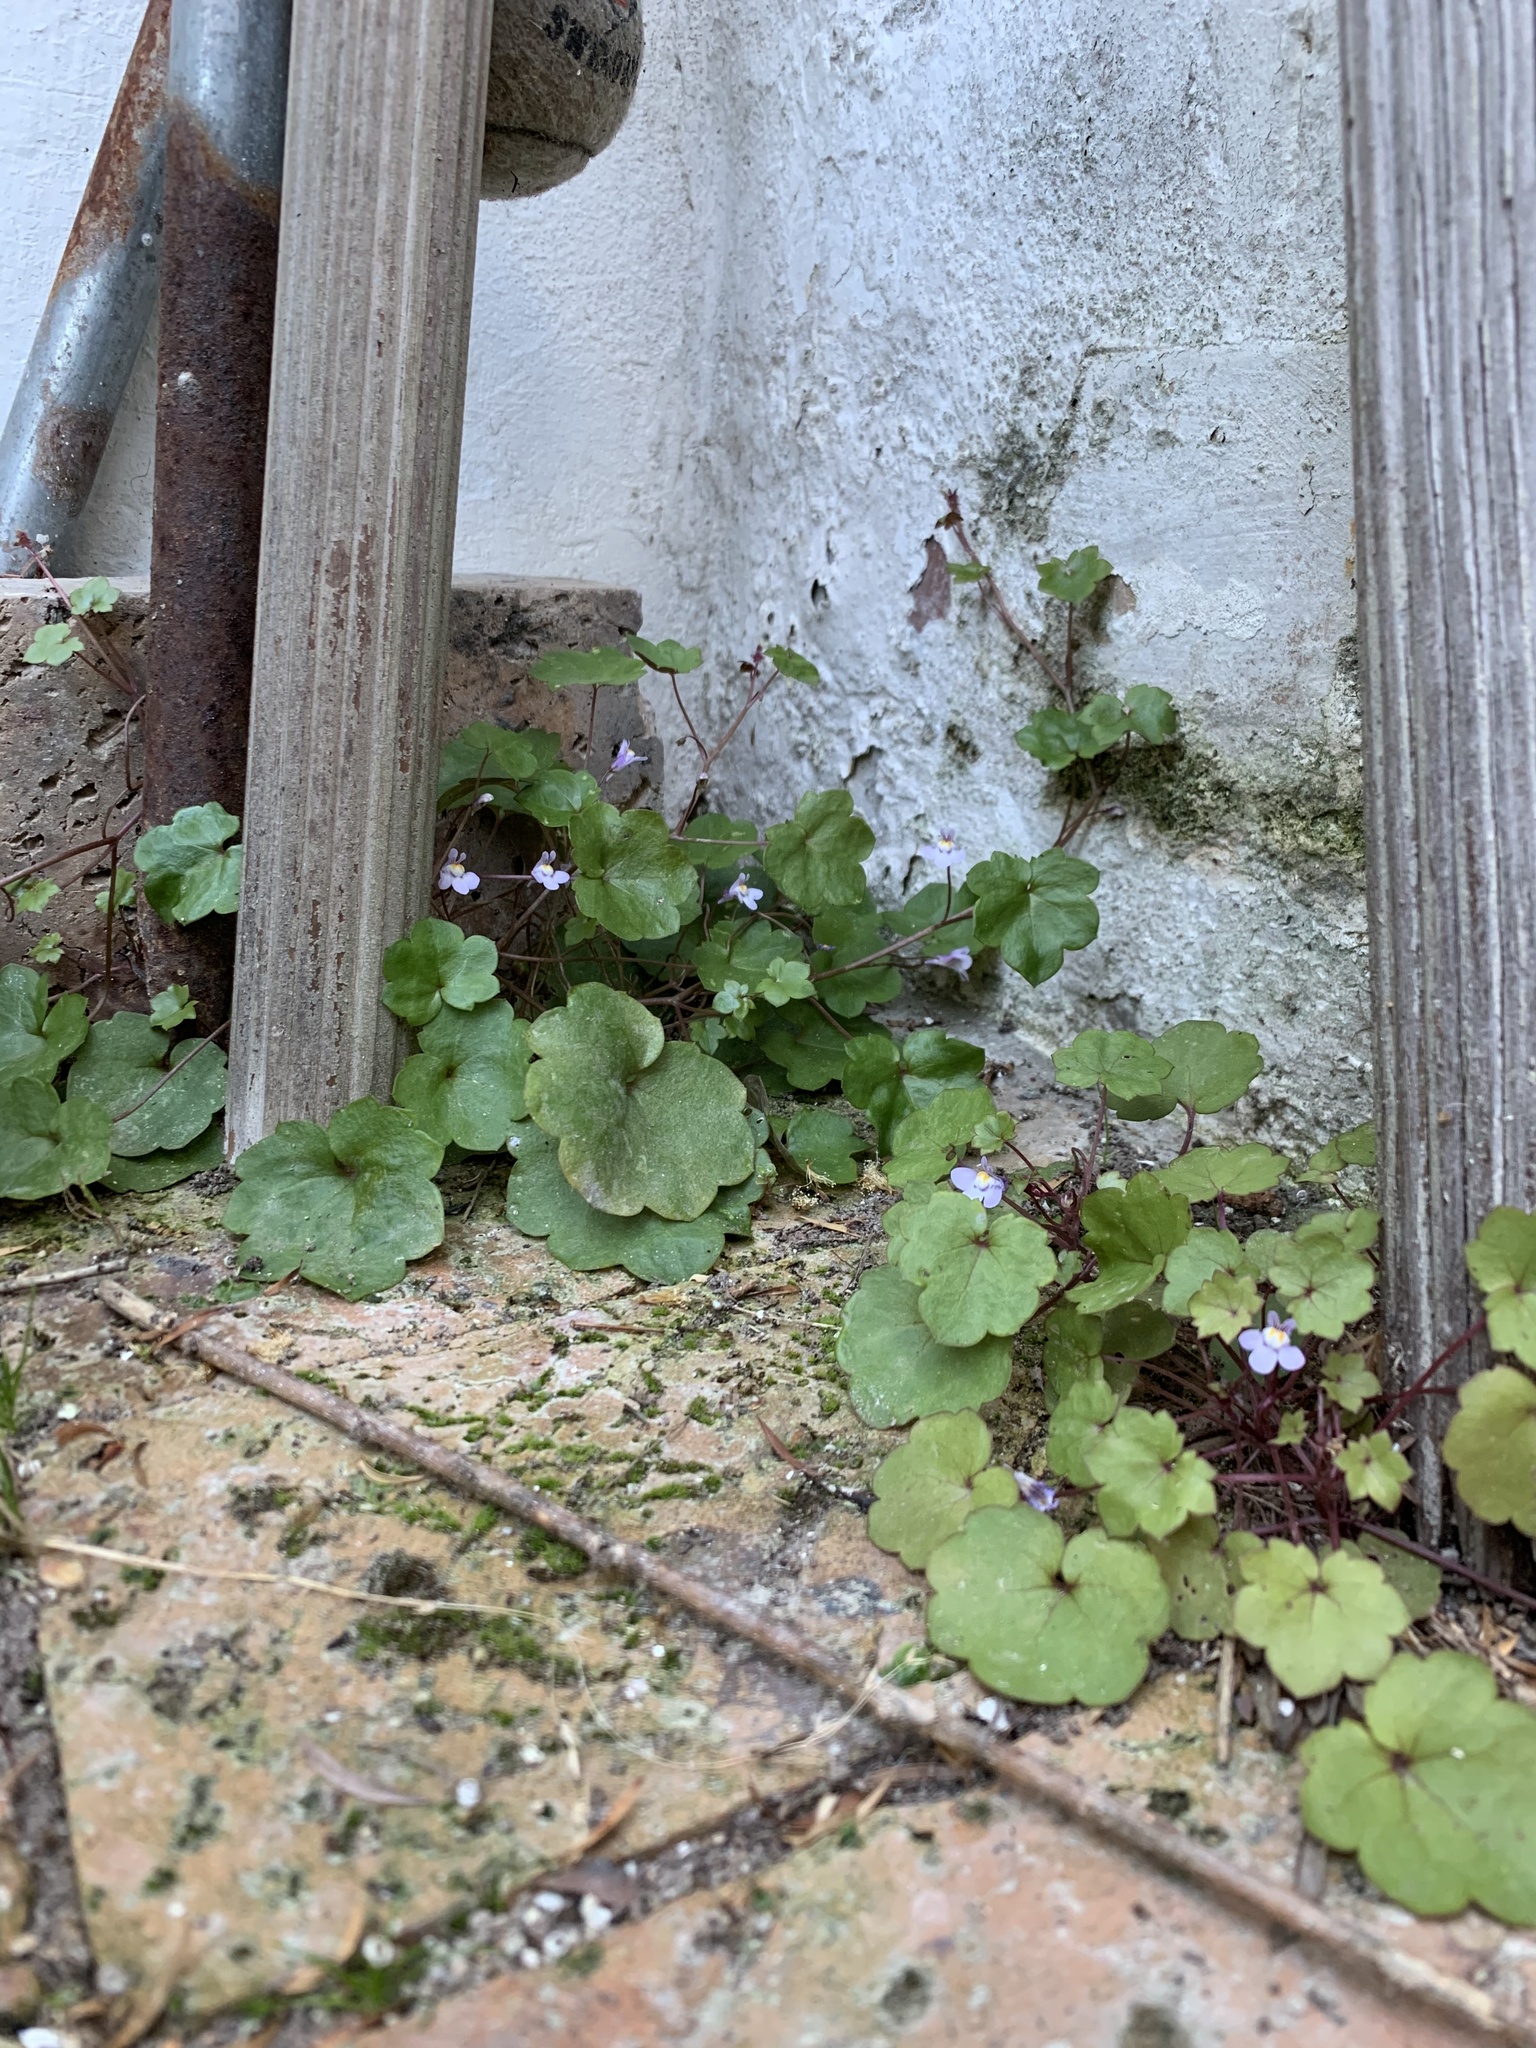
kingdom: Plantae
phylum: Tracheophyta
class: Magnoliopsida
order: Lamiales
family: Plantaginaceae
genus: Cymbalaria
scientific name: Cymbalaria muralis
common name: Ivy-leaved toadflax
